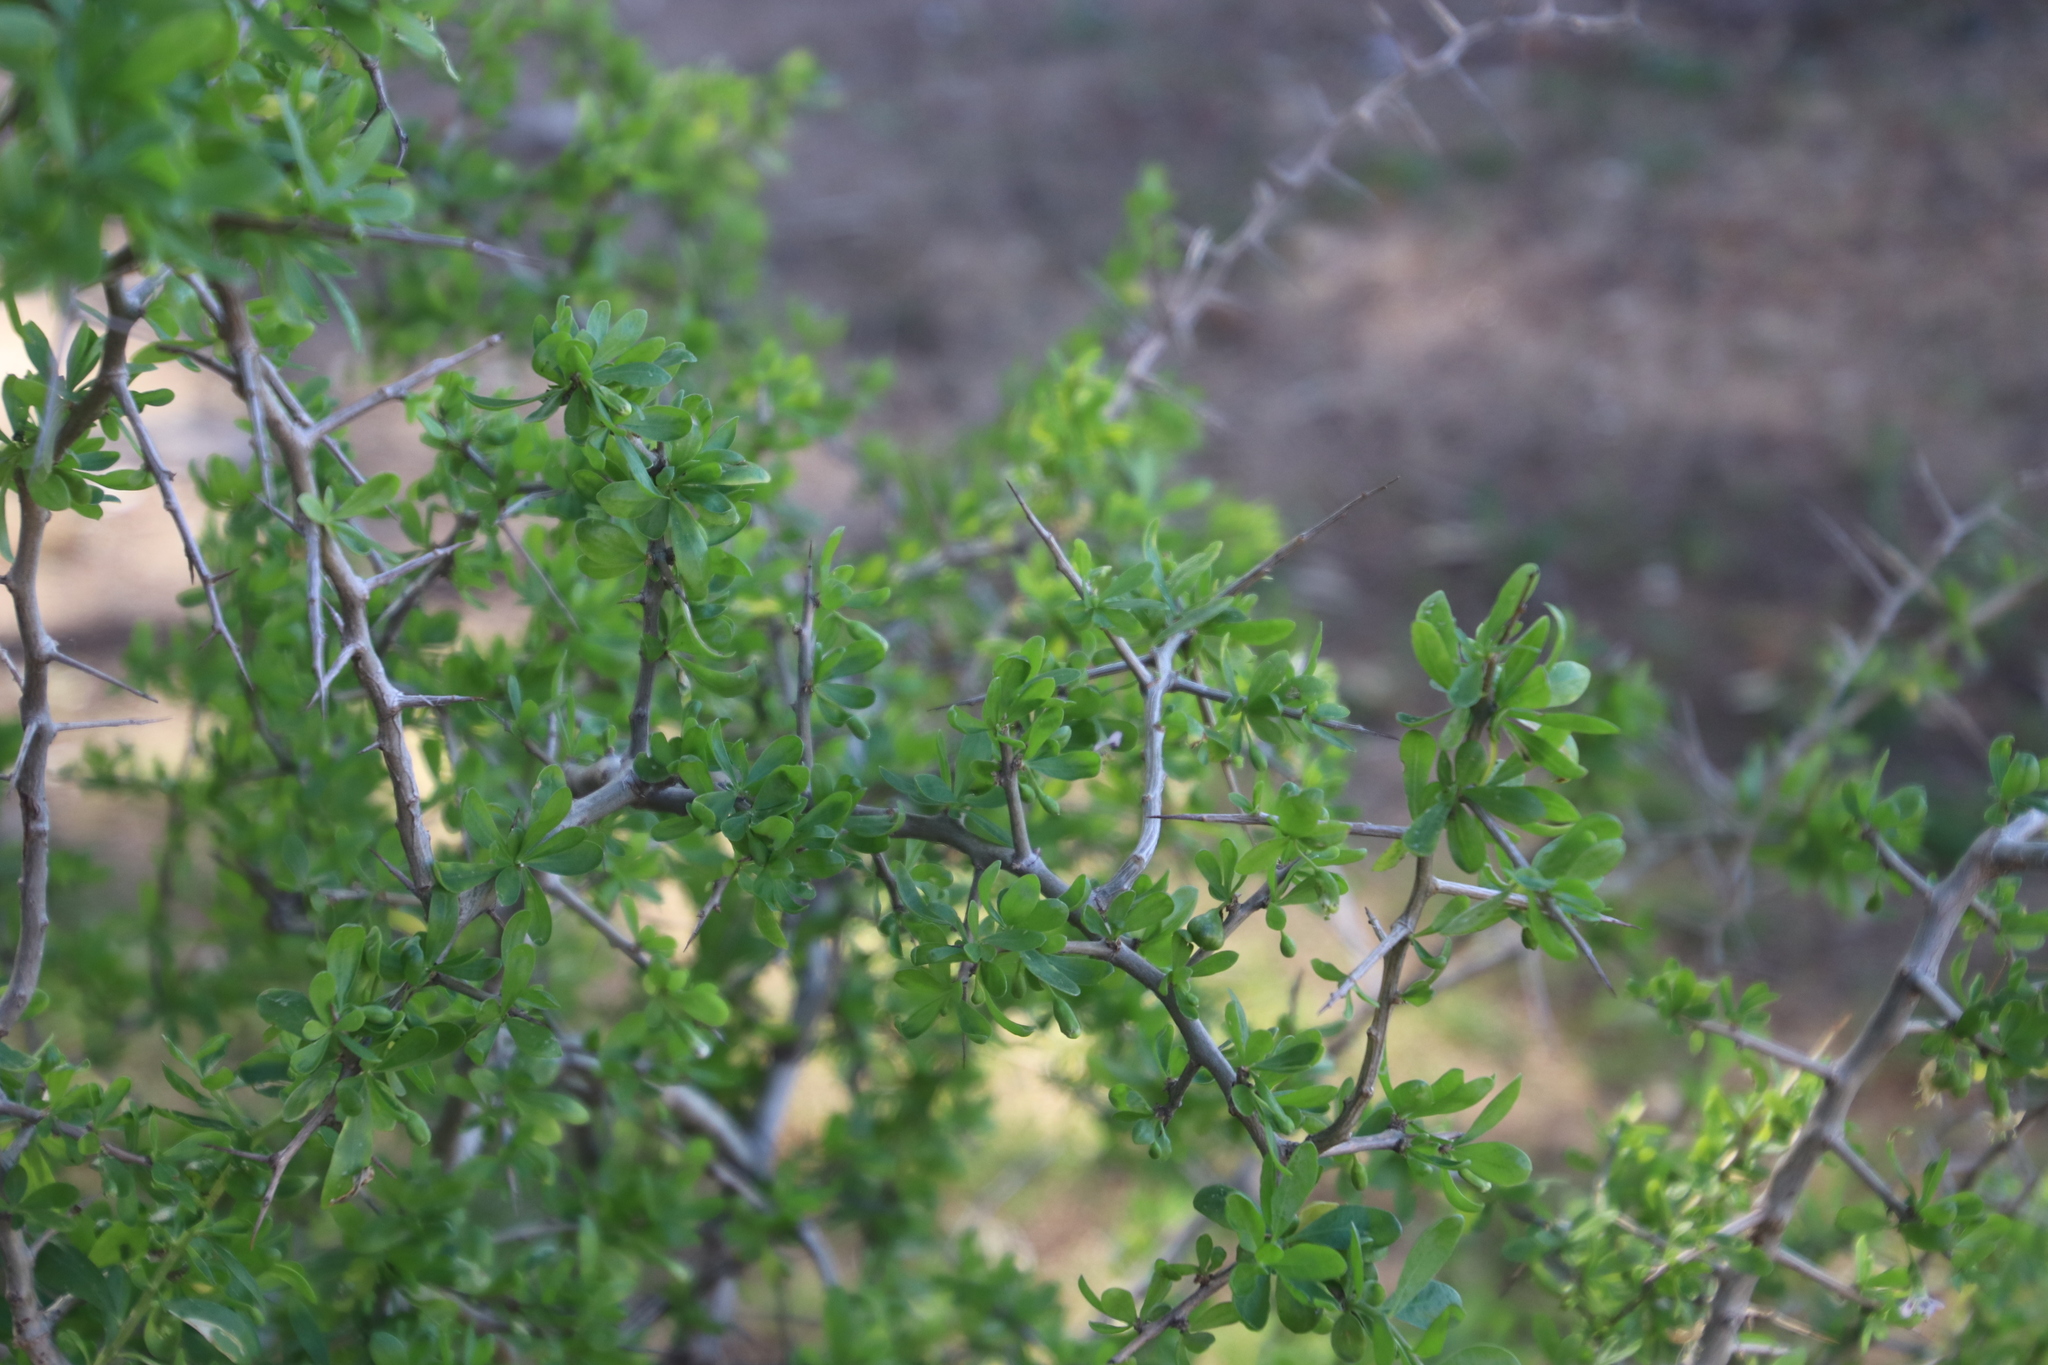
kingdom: Plantae
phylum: Tracheophyta
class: Magnoliopsida
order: Solanales
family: Solanaceae
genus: Lycium
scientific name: Lycium ferocissimum
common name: African boxthorn
